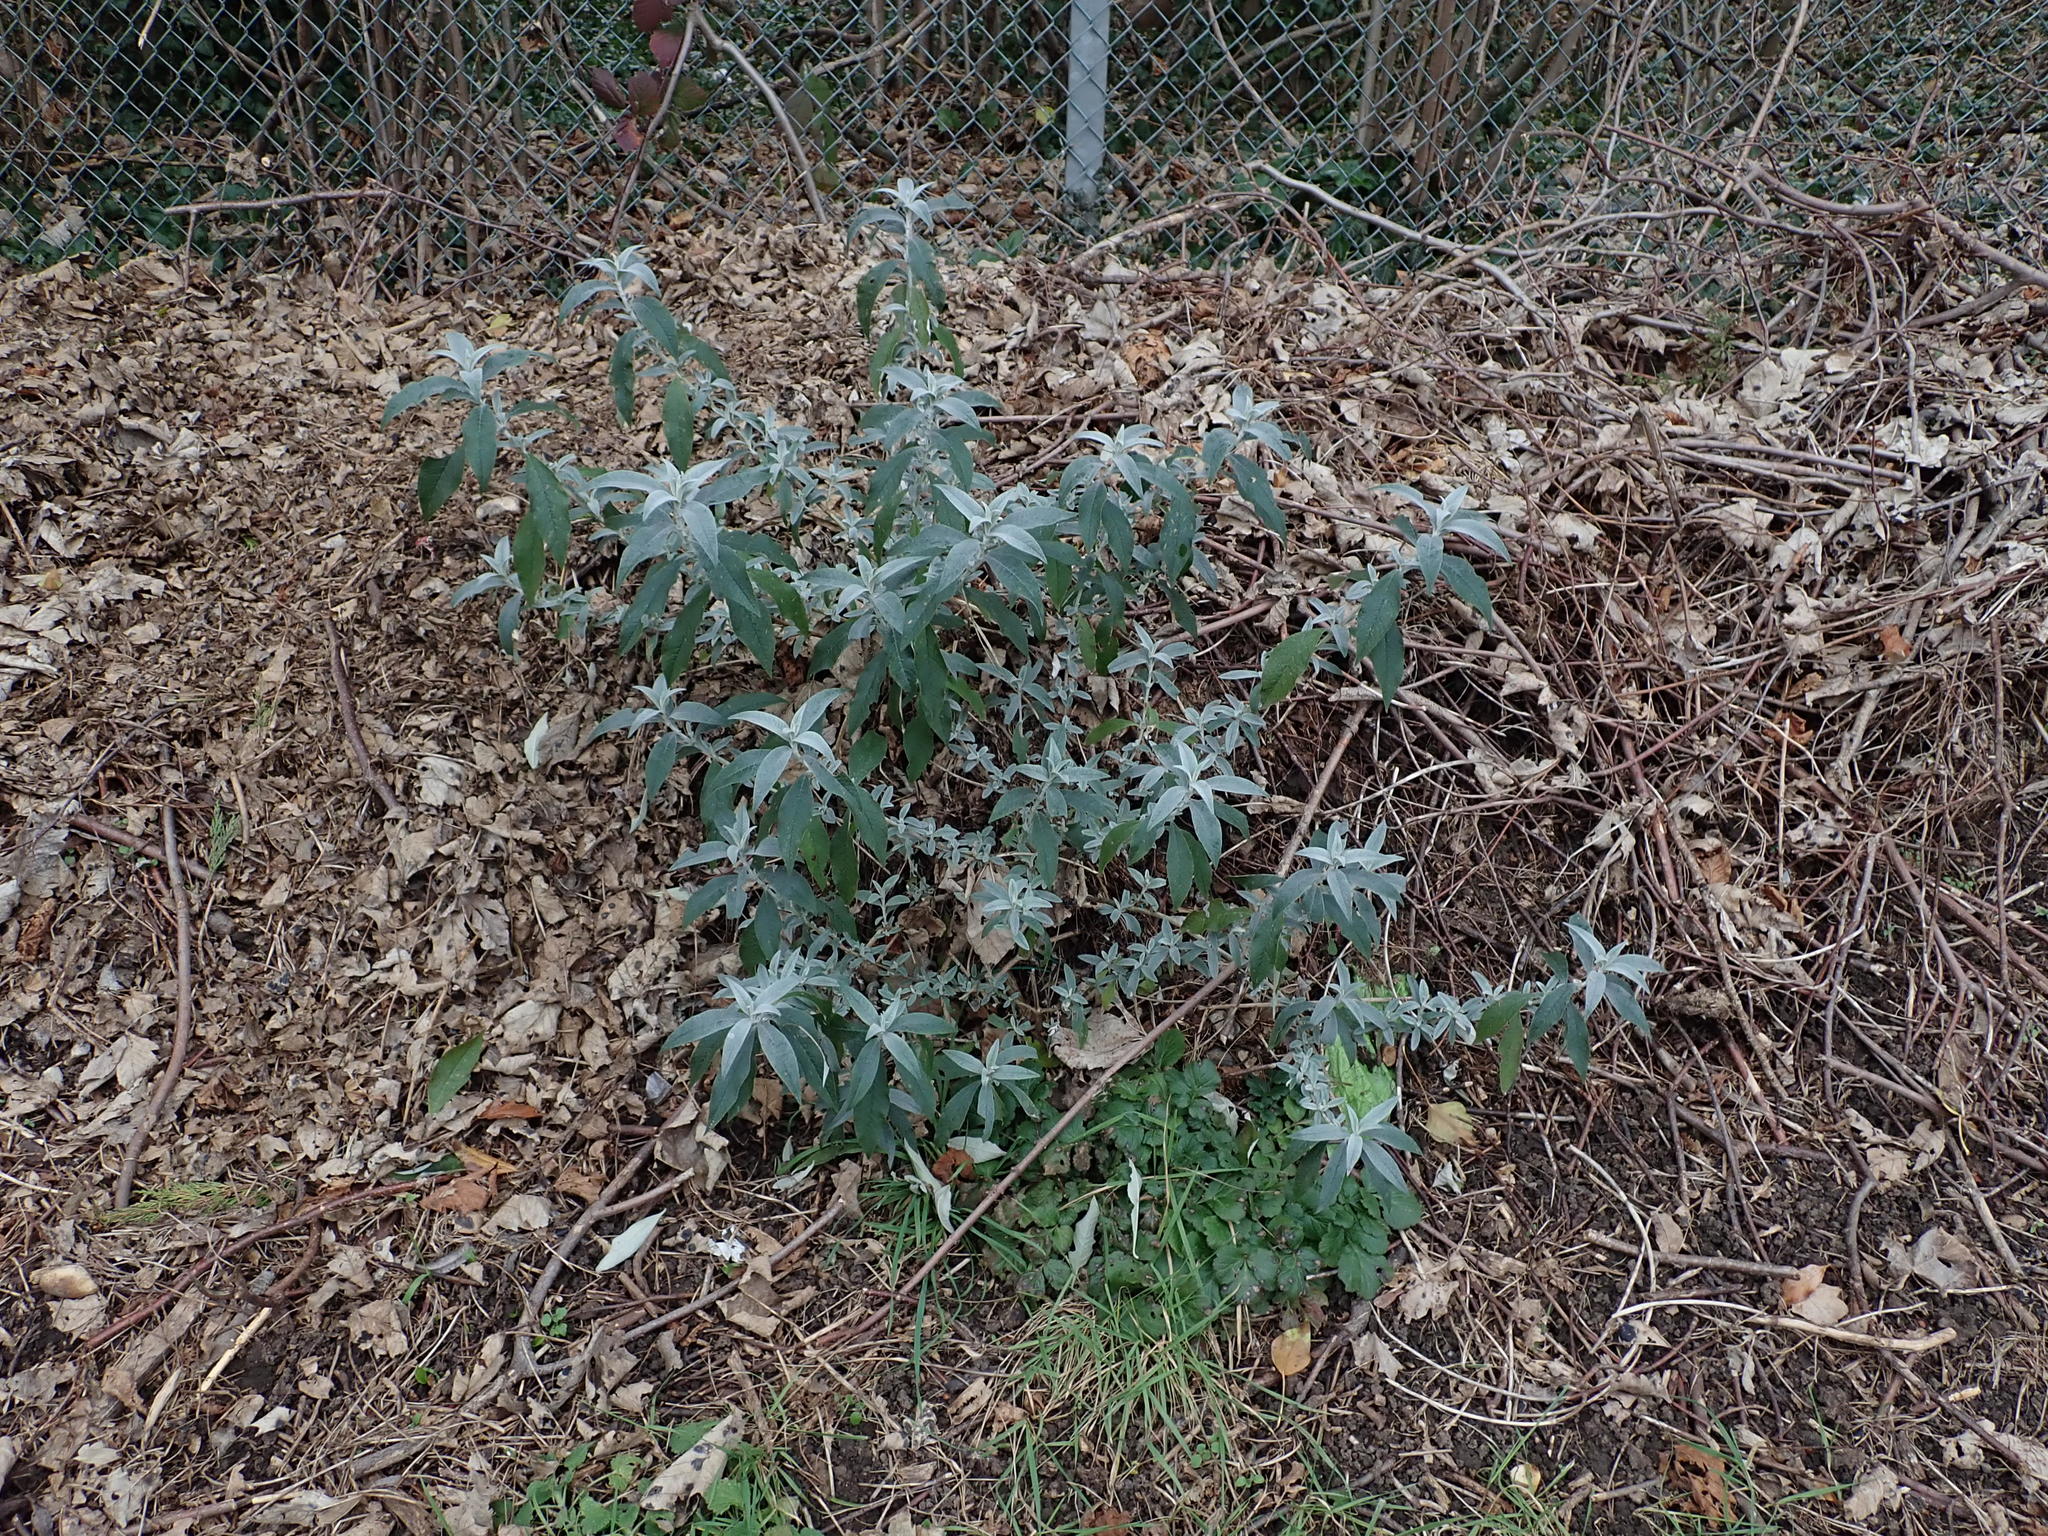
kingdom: Plantae
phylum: Tracheophyta
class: Magnoliopsida
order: Lamiales
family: Scrophulariaceae
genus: Buddleja
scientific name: Buddleja davidii
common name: Butterfly-bush
